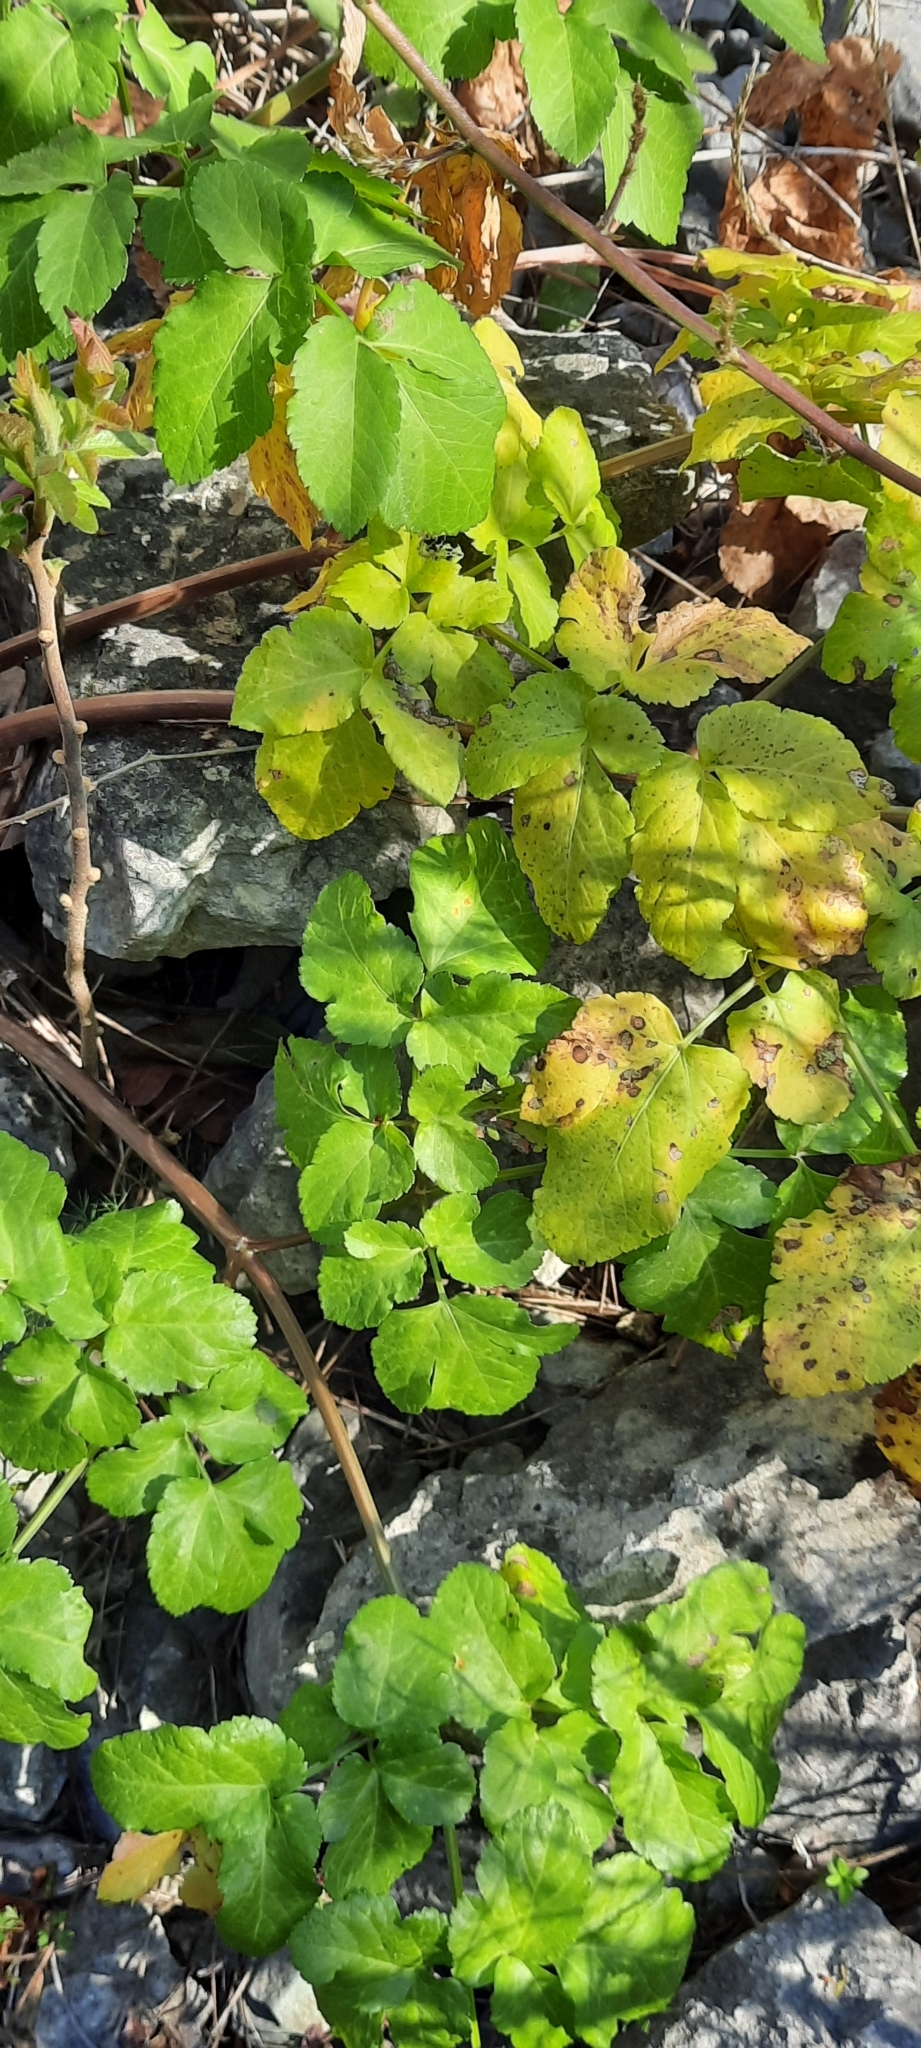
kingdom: Plantae
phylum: Tracheophyta
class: Magnoliopsida
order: Apiales
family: Apiaceae
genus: Smyrnium
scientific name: Smyrnium olusatrum
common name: Alexanders
